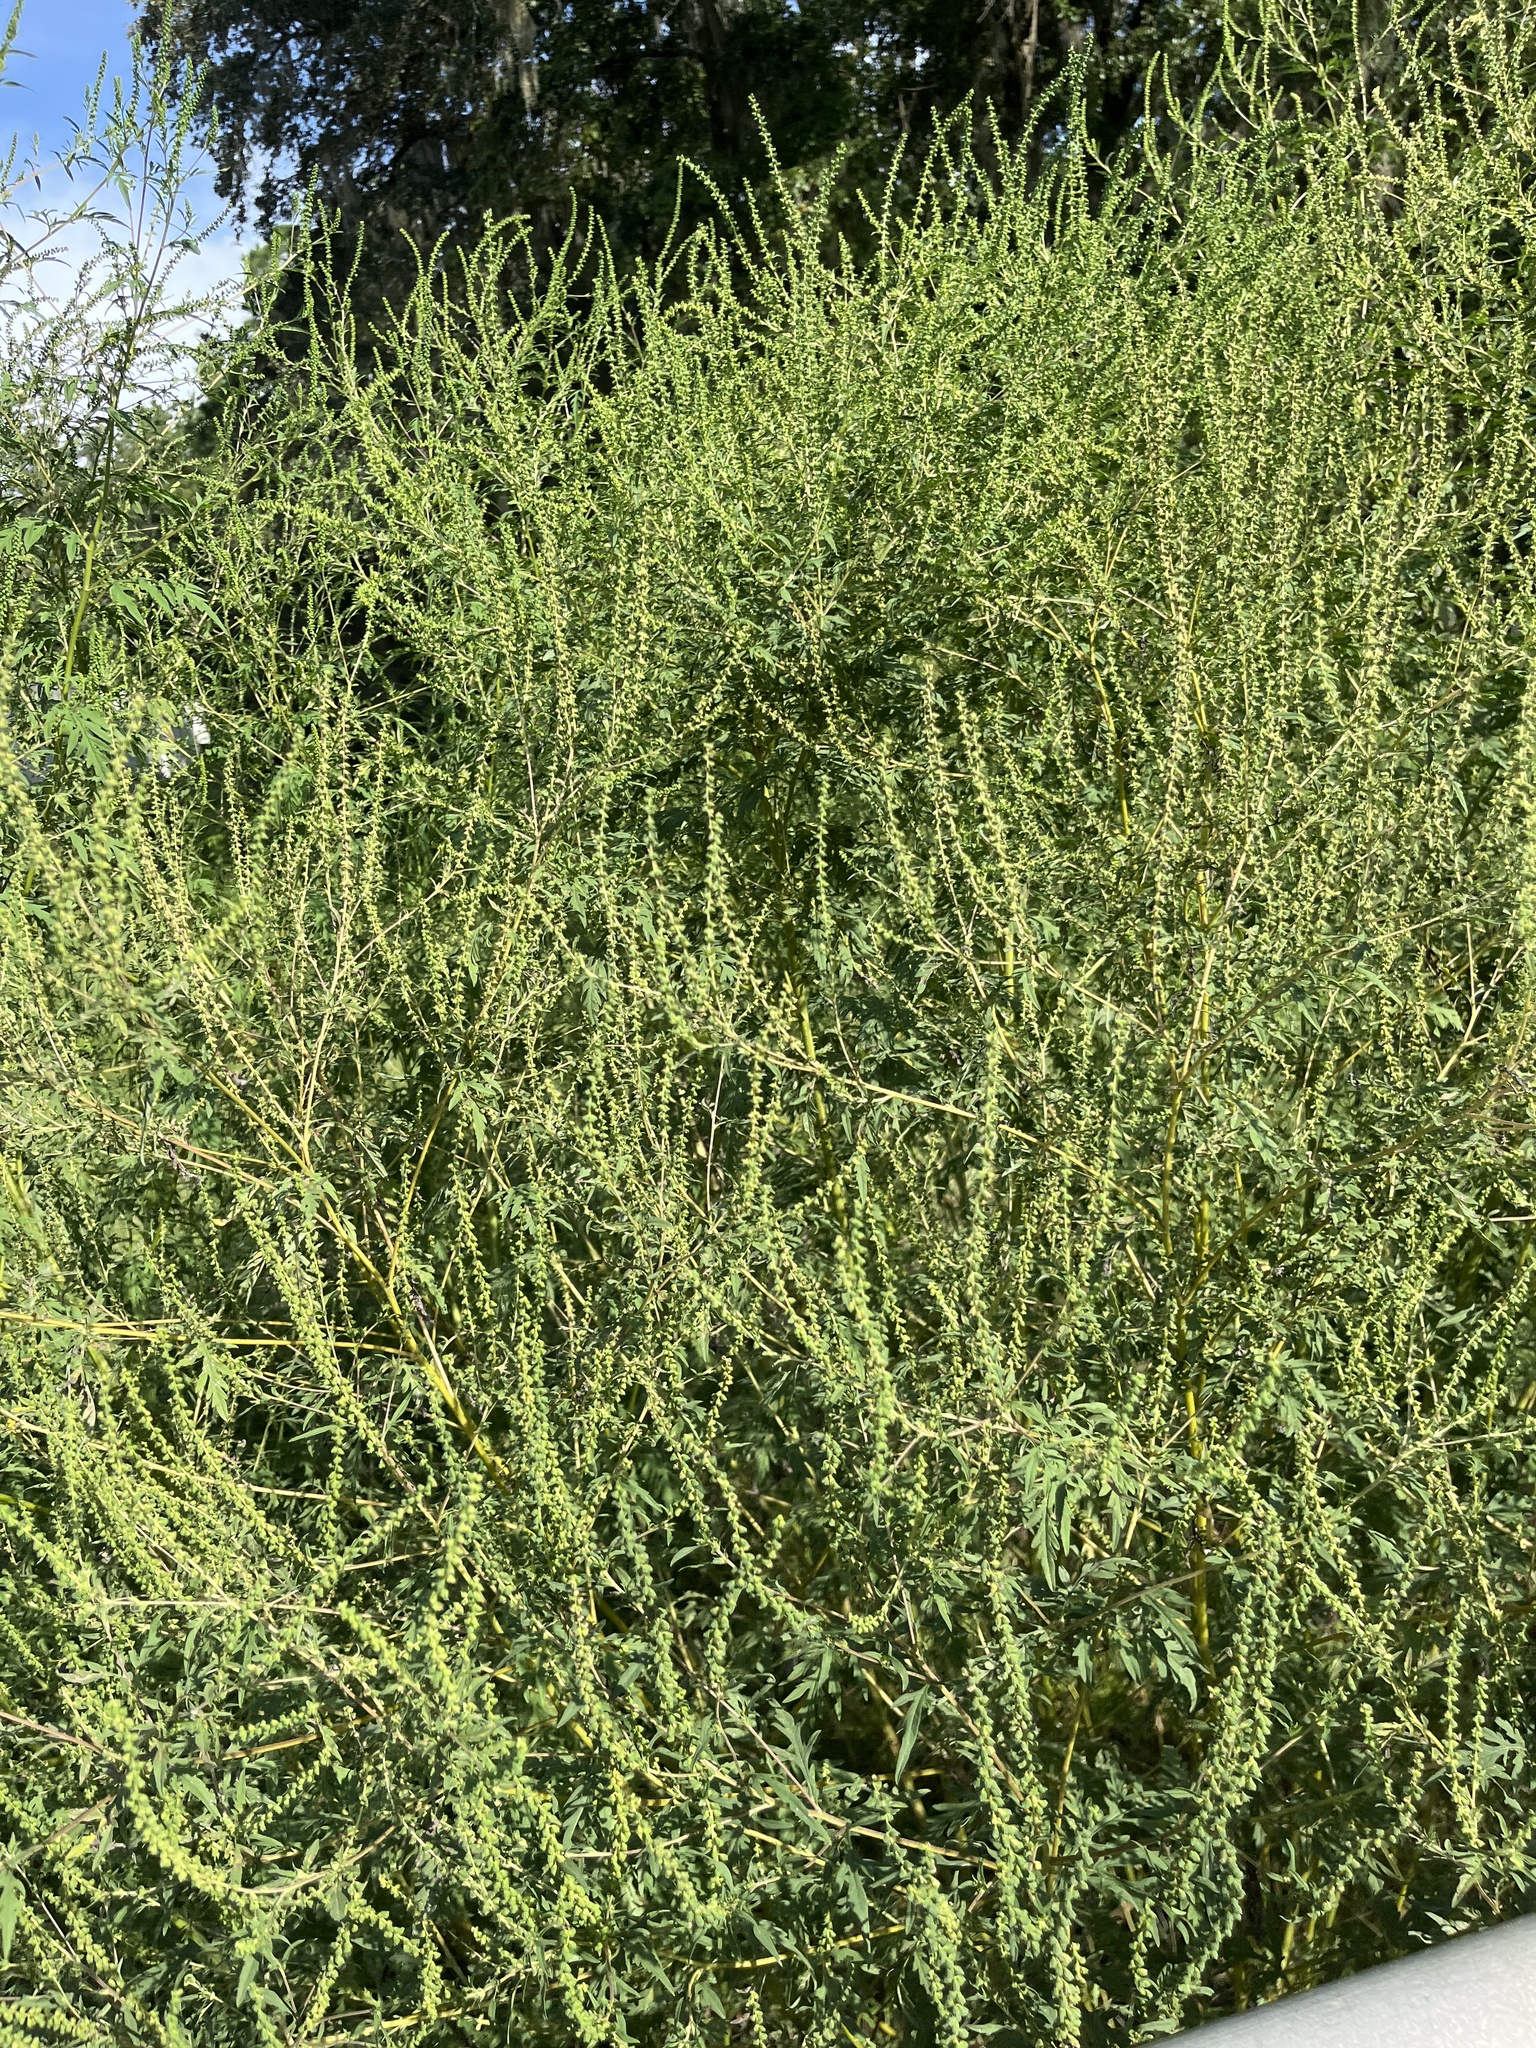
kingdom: Plantae
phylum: Tracheophyta
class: Magnoliopsida
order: Asterales
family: Asteraceae
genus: Ambrosia
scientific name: Ambrosia artemisiifolia
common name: Annual ragweed
